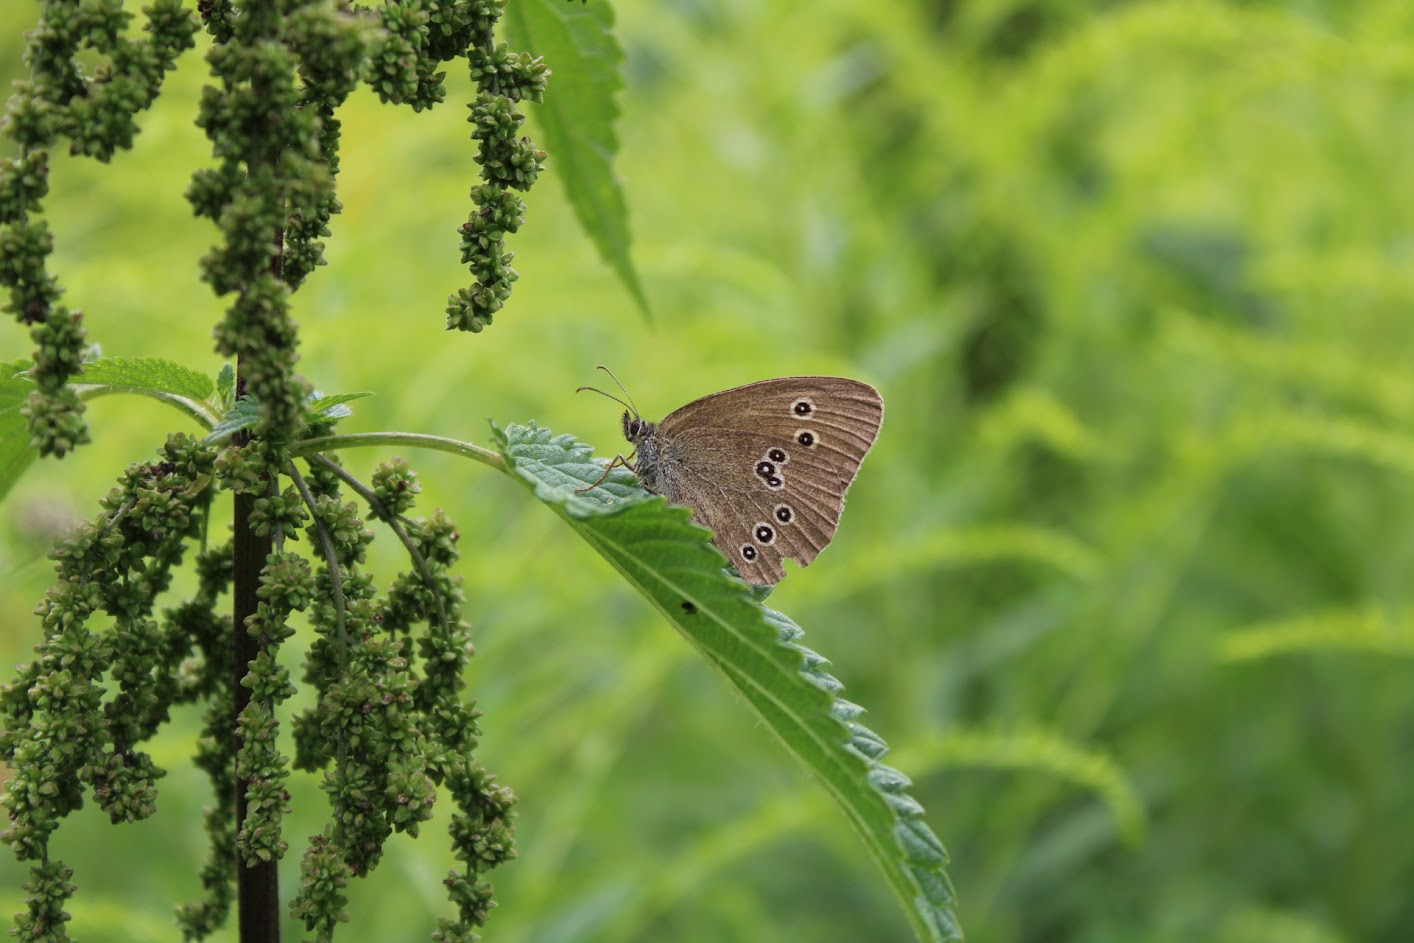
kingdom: Animalia
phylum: Arthropoda
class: Insecta
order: Lepidoptera
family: Nymphalidae
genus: Aphantopus
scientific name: Aphantopus hyperantus
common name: Ringlet
